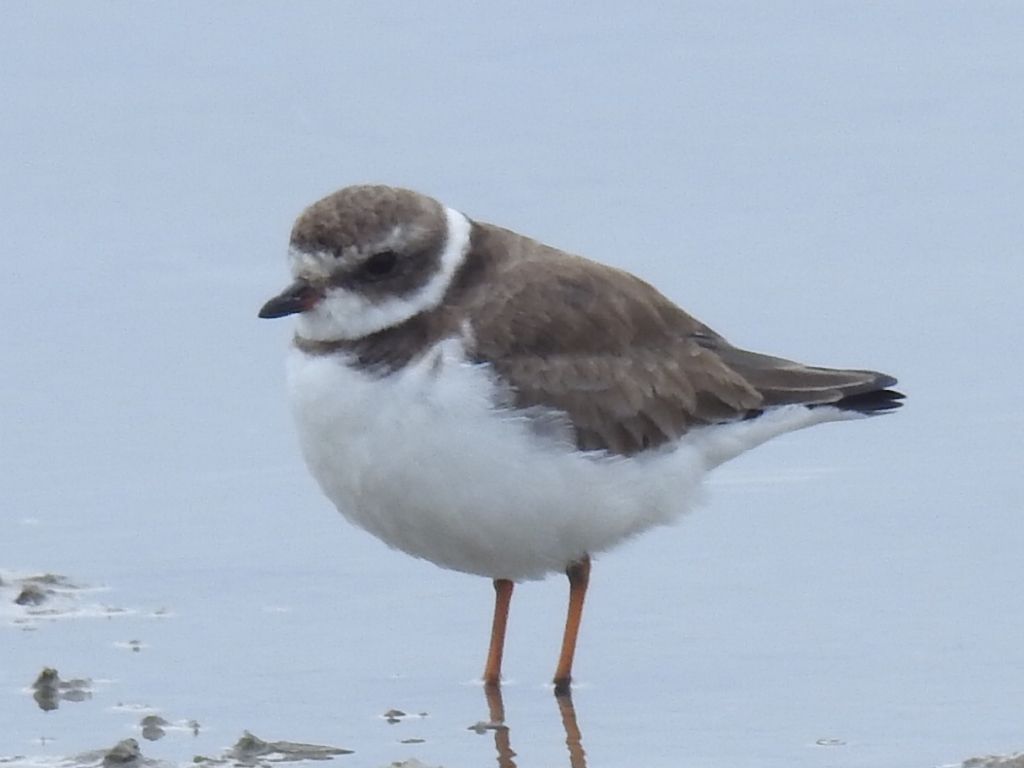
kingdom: Animalia
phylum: Chordata
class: Aves
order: Charadriiformes
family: Charadriidae
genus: Charadrius
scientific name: Charadrius semipalmatus
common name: Semipalmated plover
